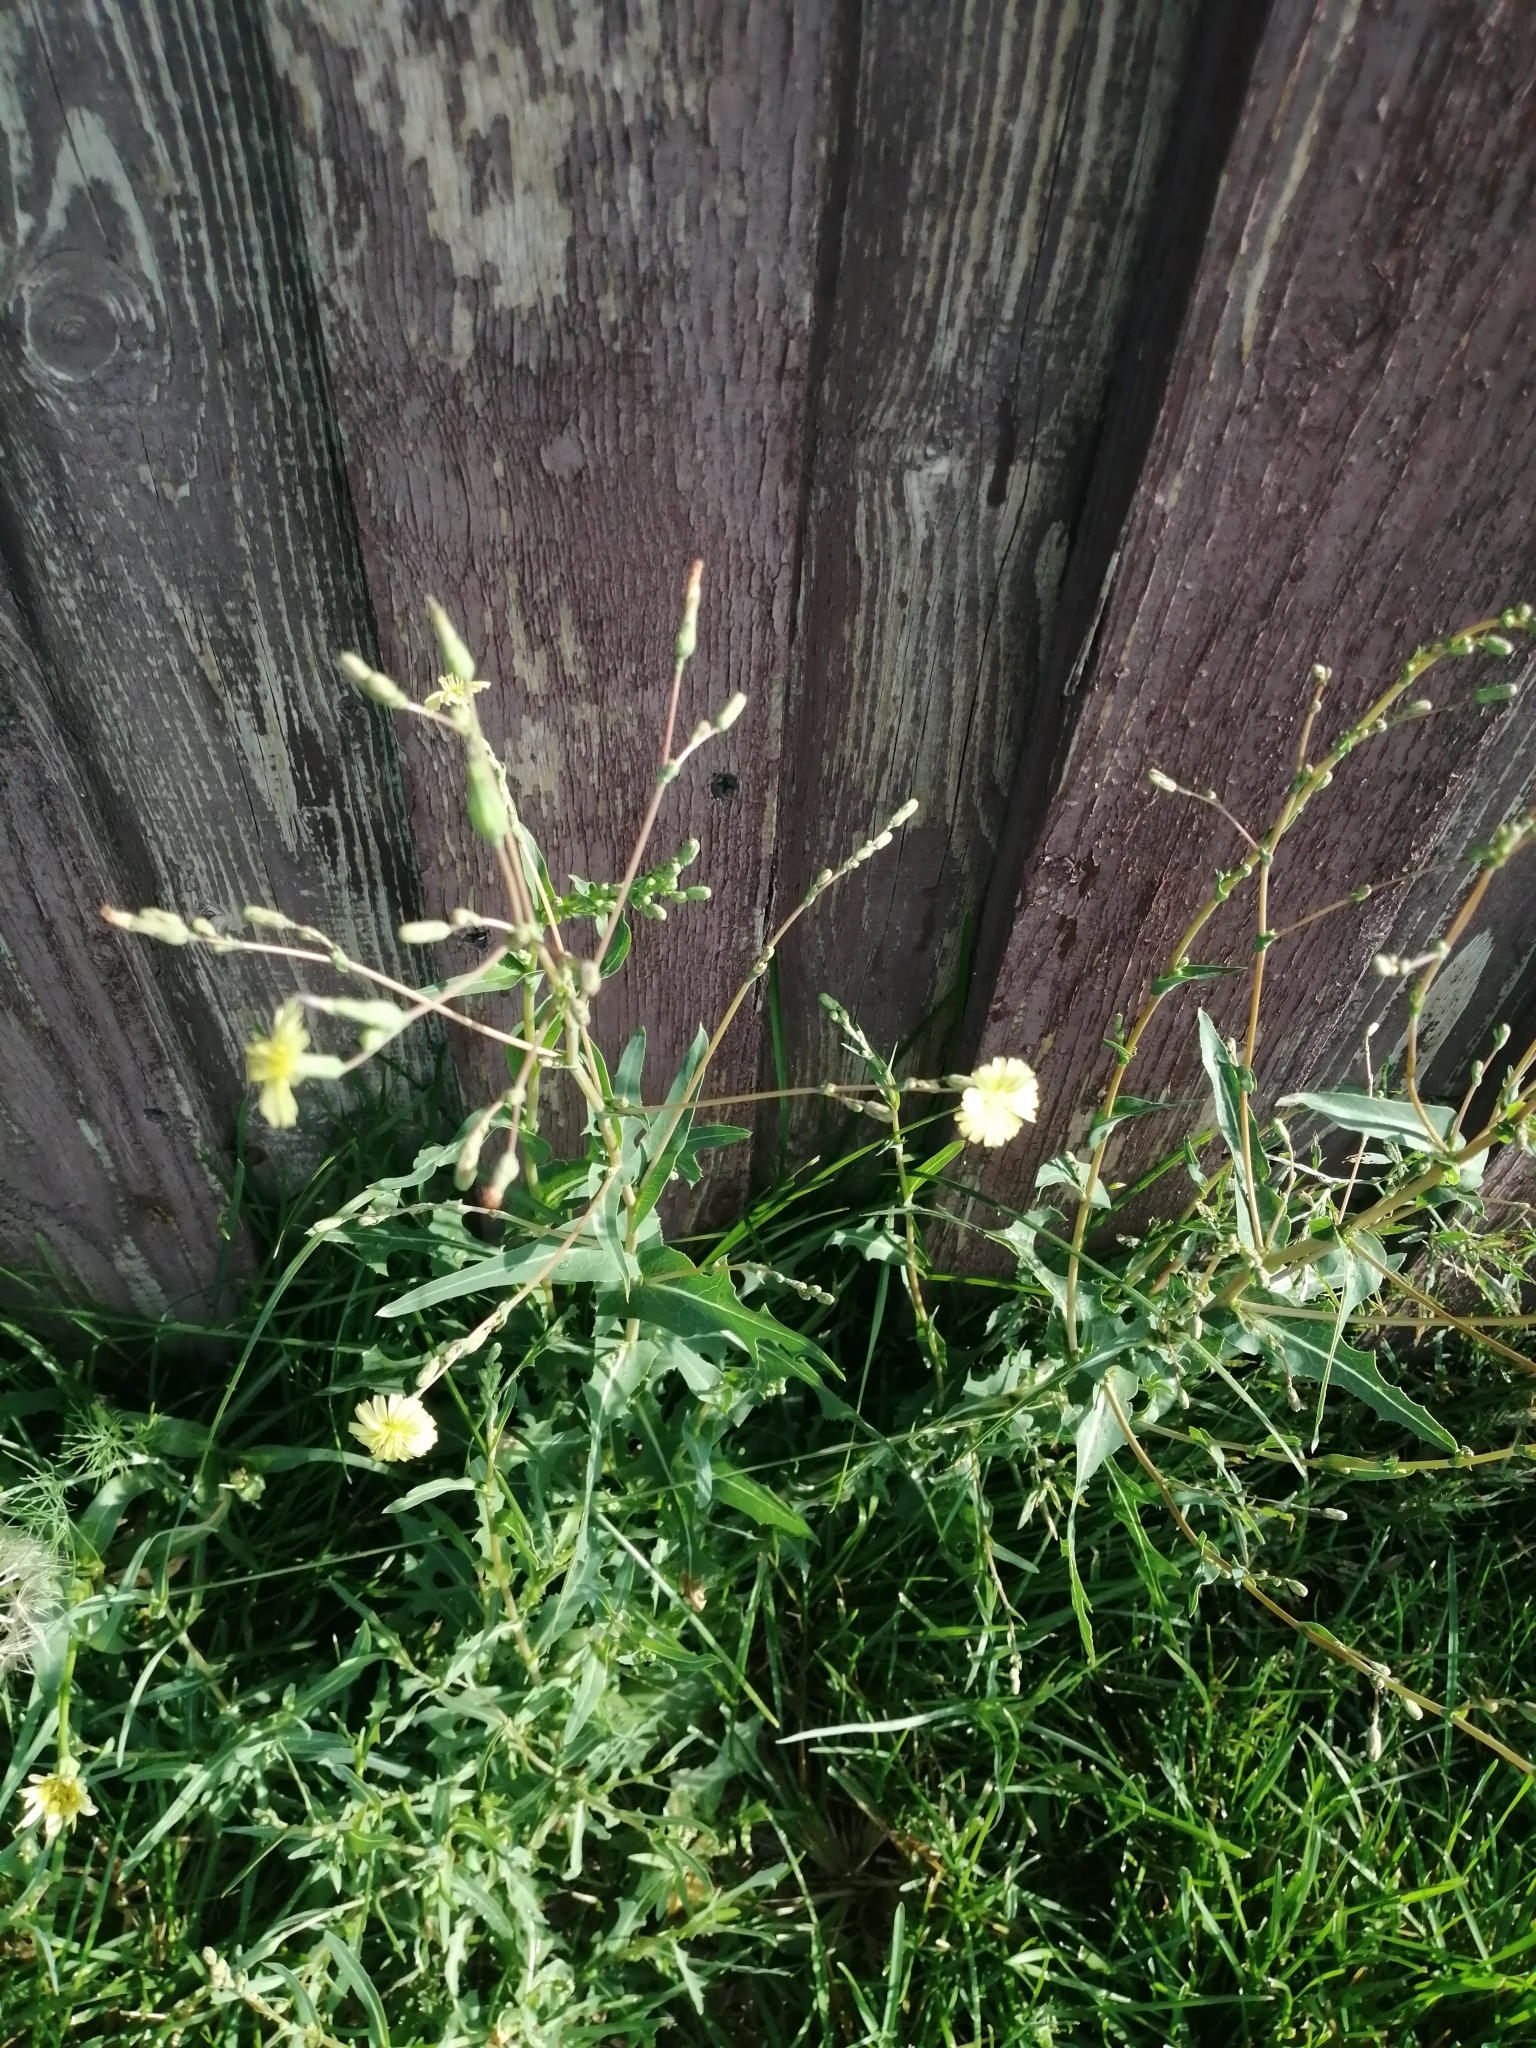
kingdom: Plantae
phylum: Tracheophyta
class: Magnoliopsida
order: Asterales
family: Asteraceae
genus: Lactuca
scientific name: Lactuca serriola
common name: Prickly lettuce
